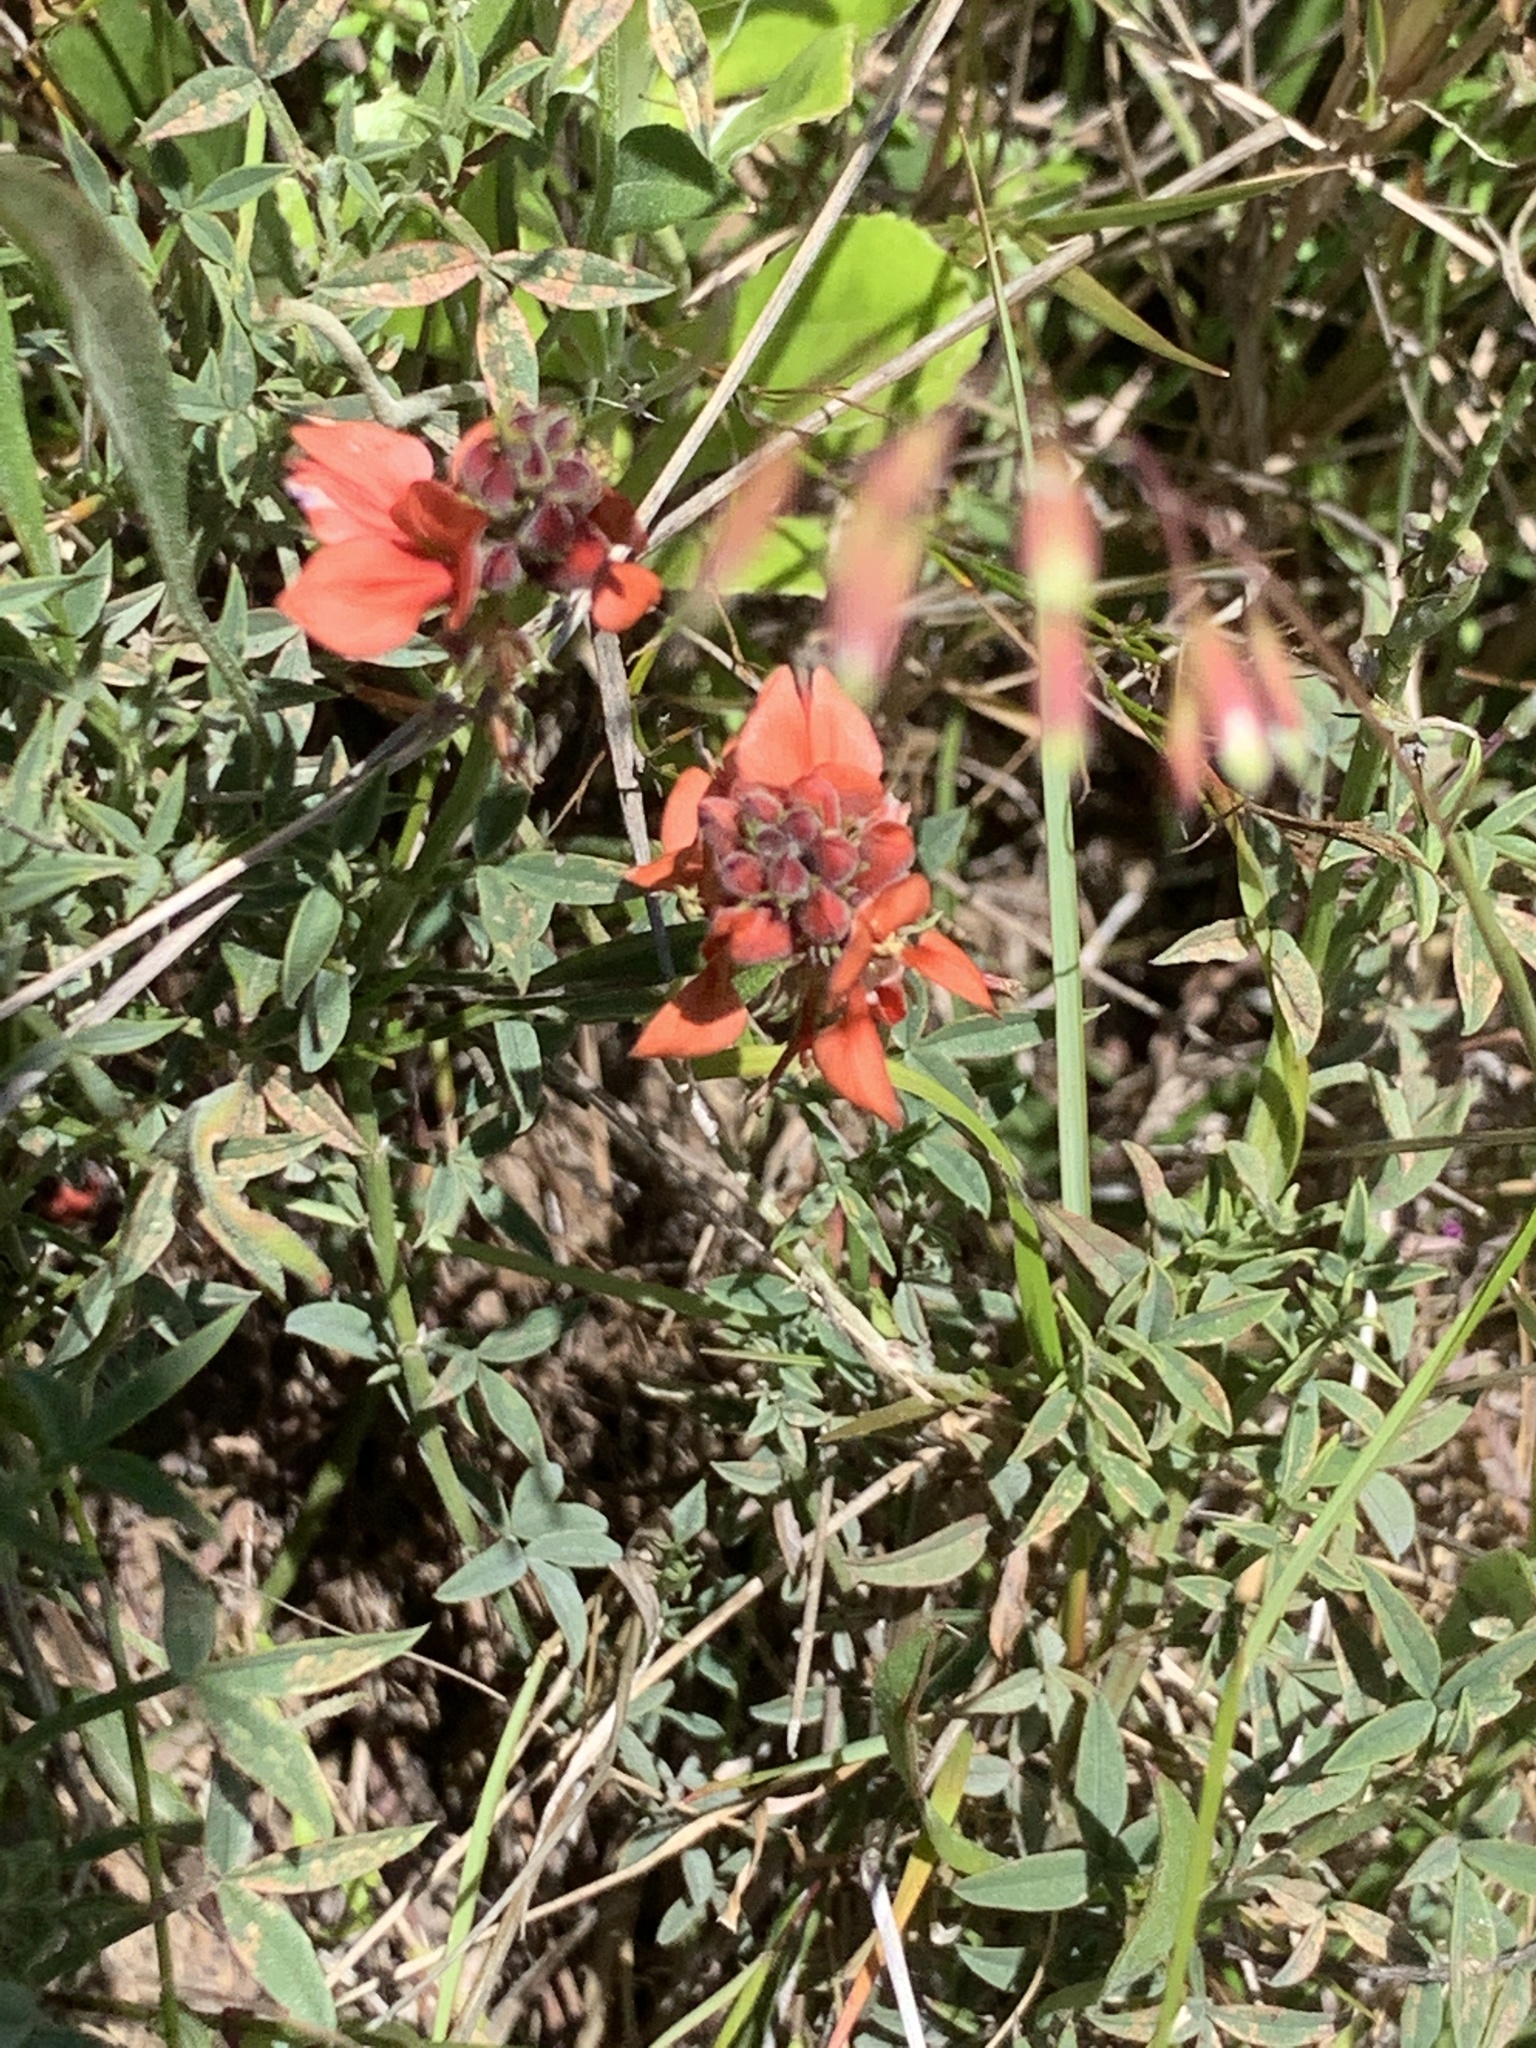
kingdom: Plantae
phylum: Tracheophyta
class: Magnoliopsida
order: Fabales
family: Fabaceae
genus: Indigofera
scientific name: Indigofera complanata
